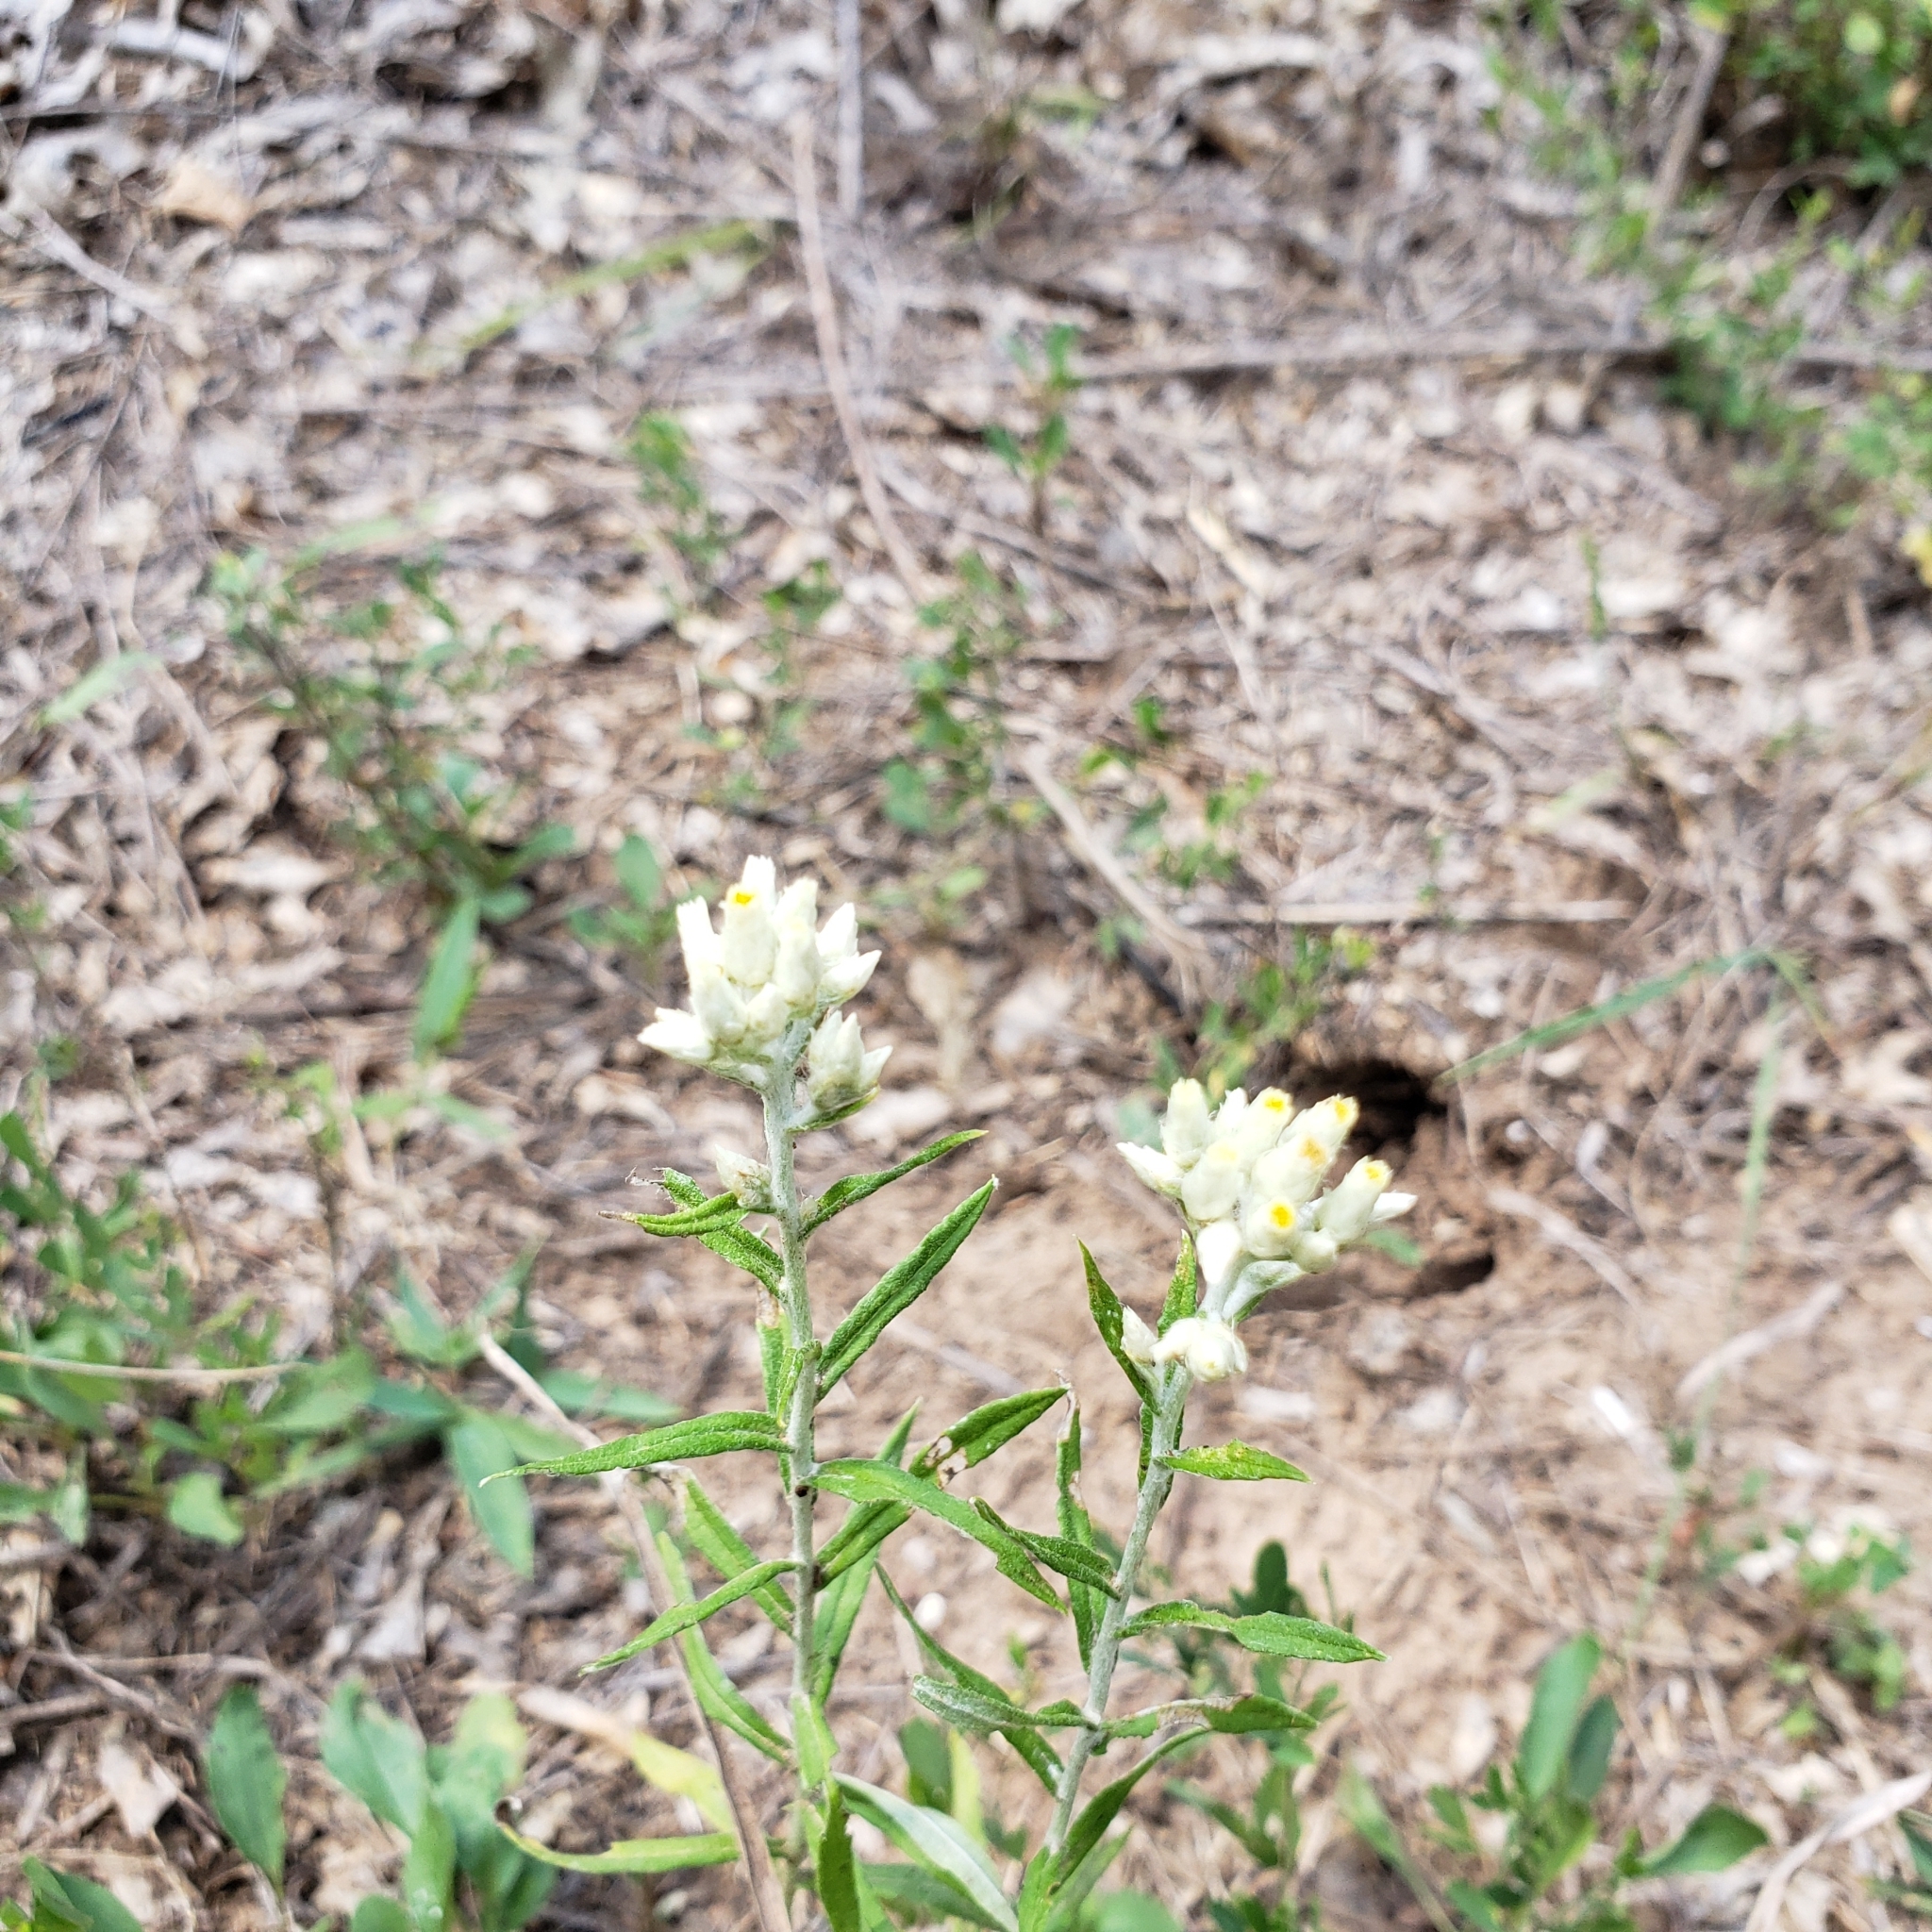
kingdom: Plantae
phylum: Tracheophyta
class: Magnoliopsida
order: Asterales
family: Asteraceae
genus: Pseudognaphalium
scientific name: Pseudognaphalium obtusifolium
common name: Eastern rabbit-tobacco
